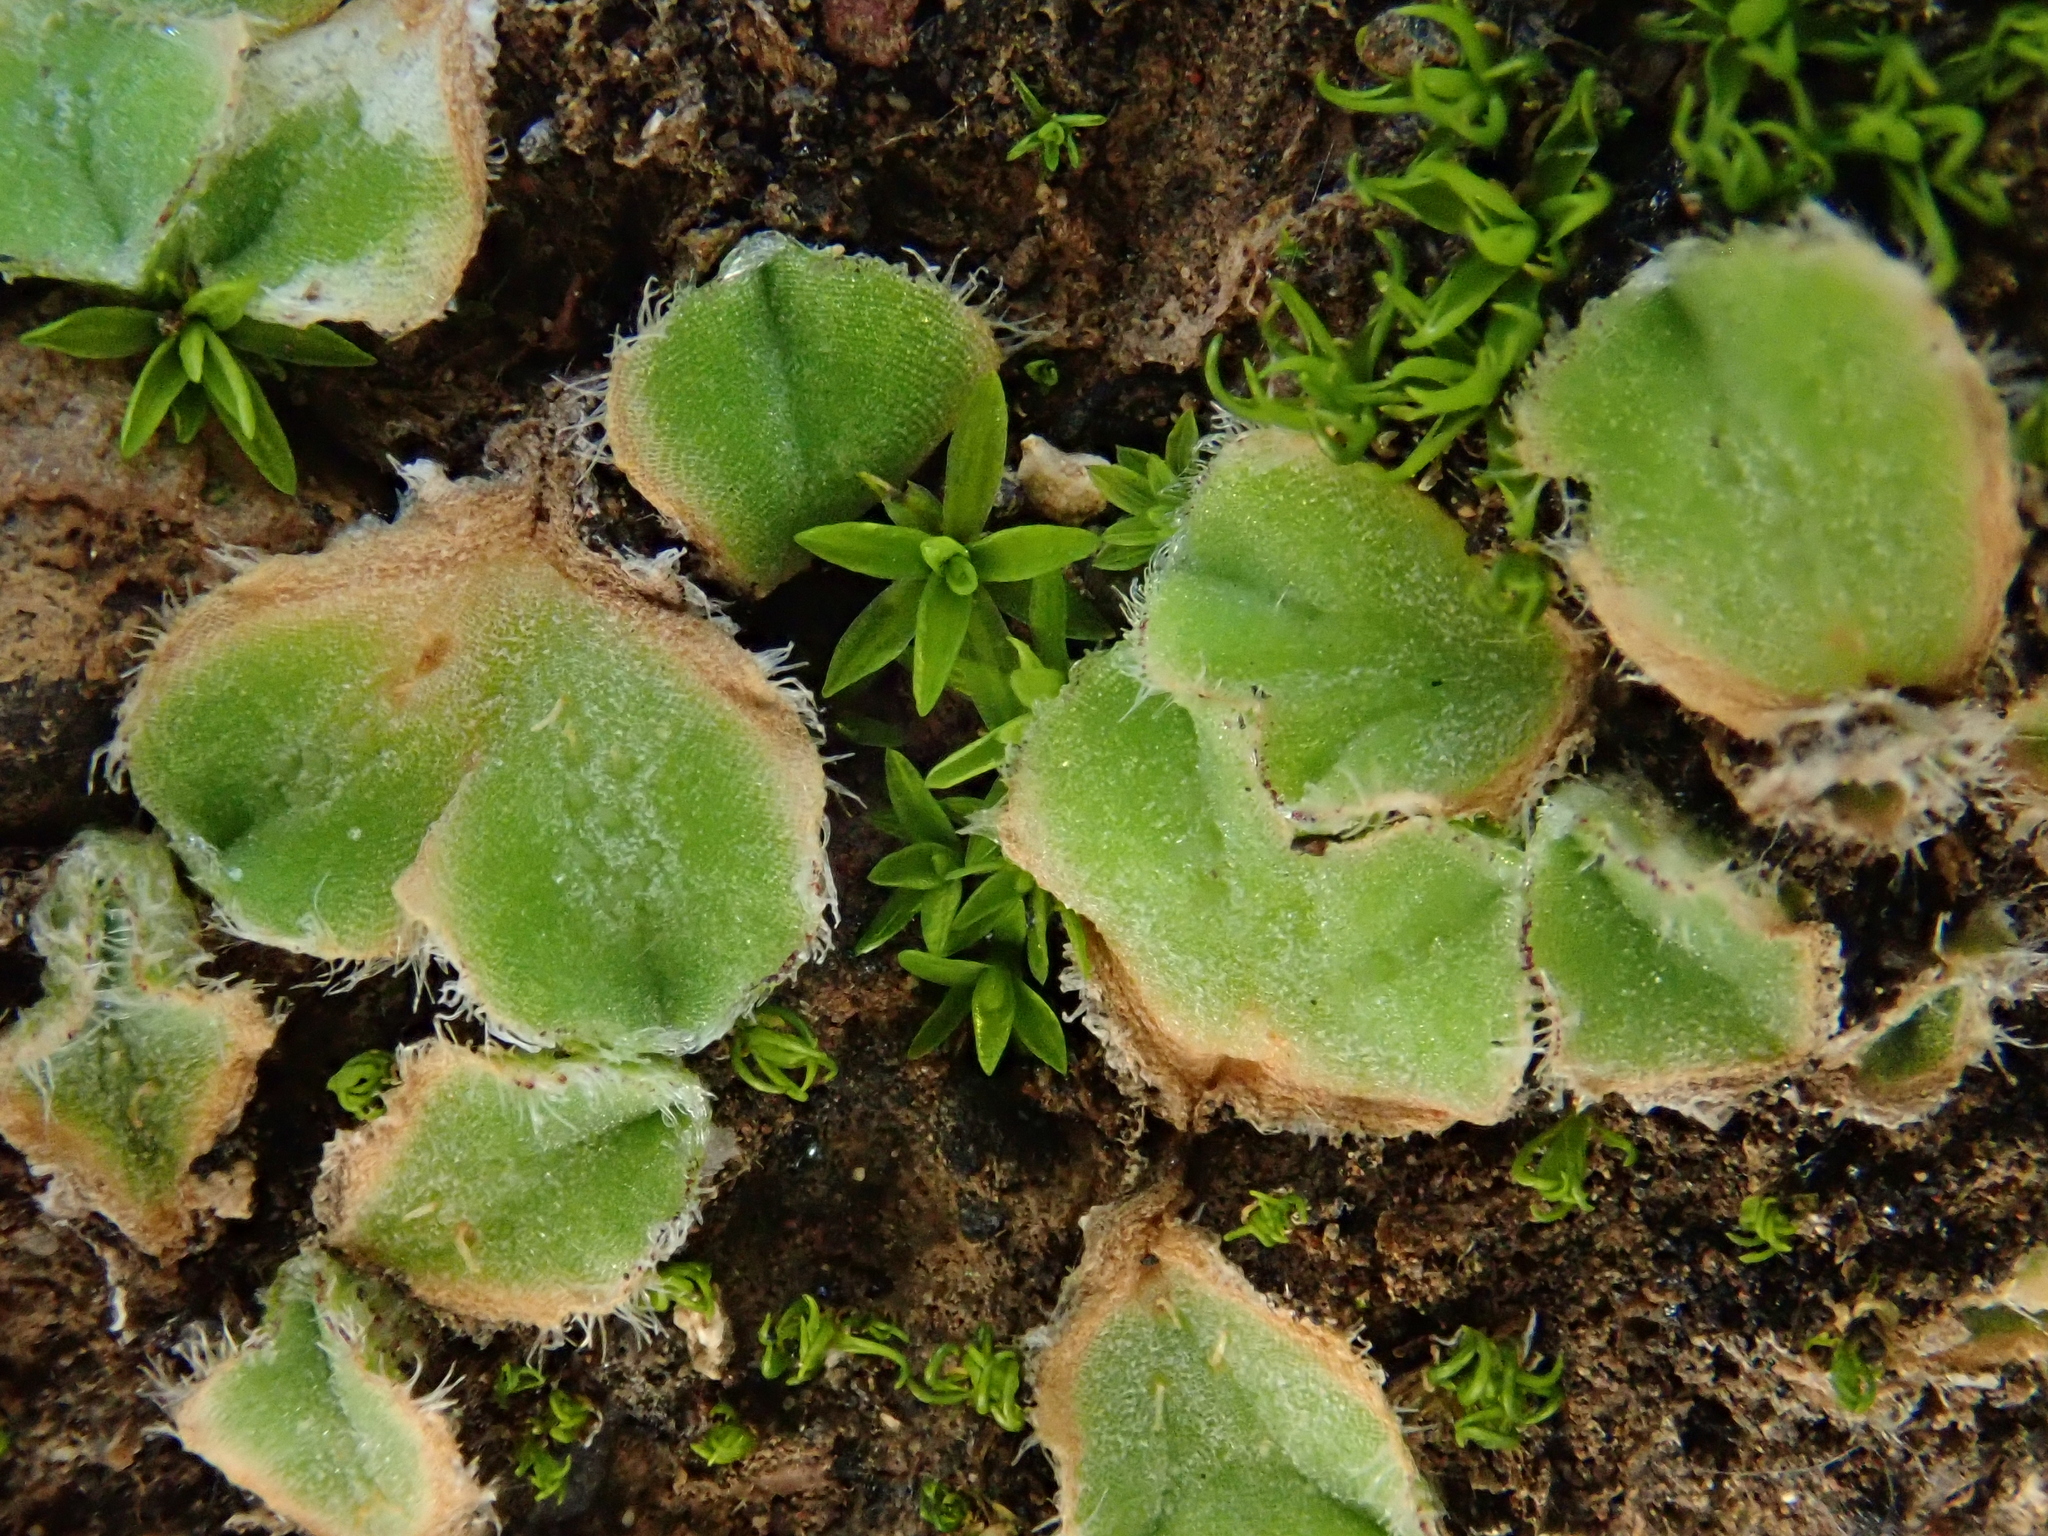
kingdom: Plantae
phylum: Marchantiophyta
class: Marchantiopsida
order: Marchantiales
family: Ricciaceae
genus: Riccia
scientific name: Riccia gougetiana
